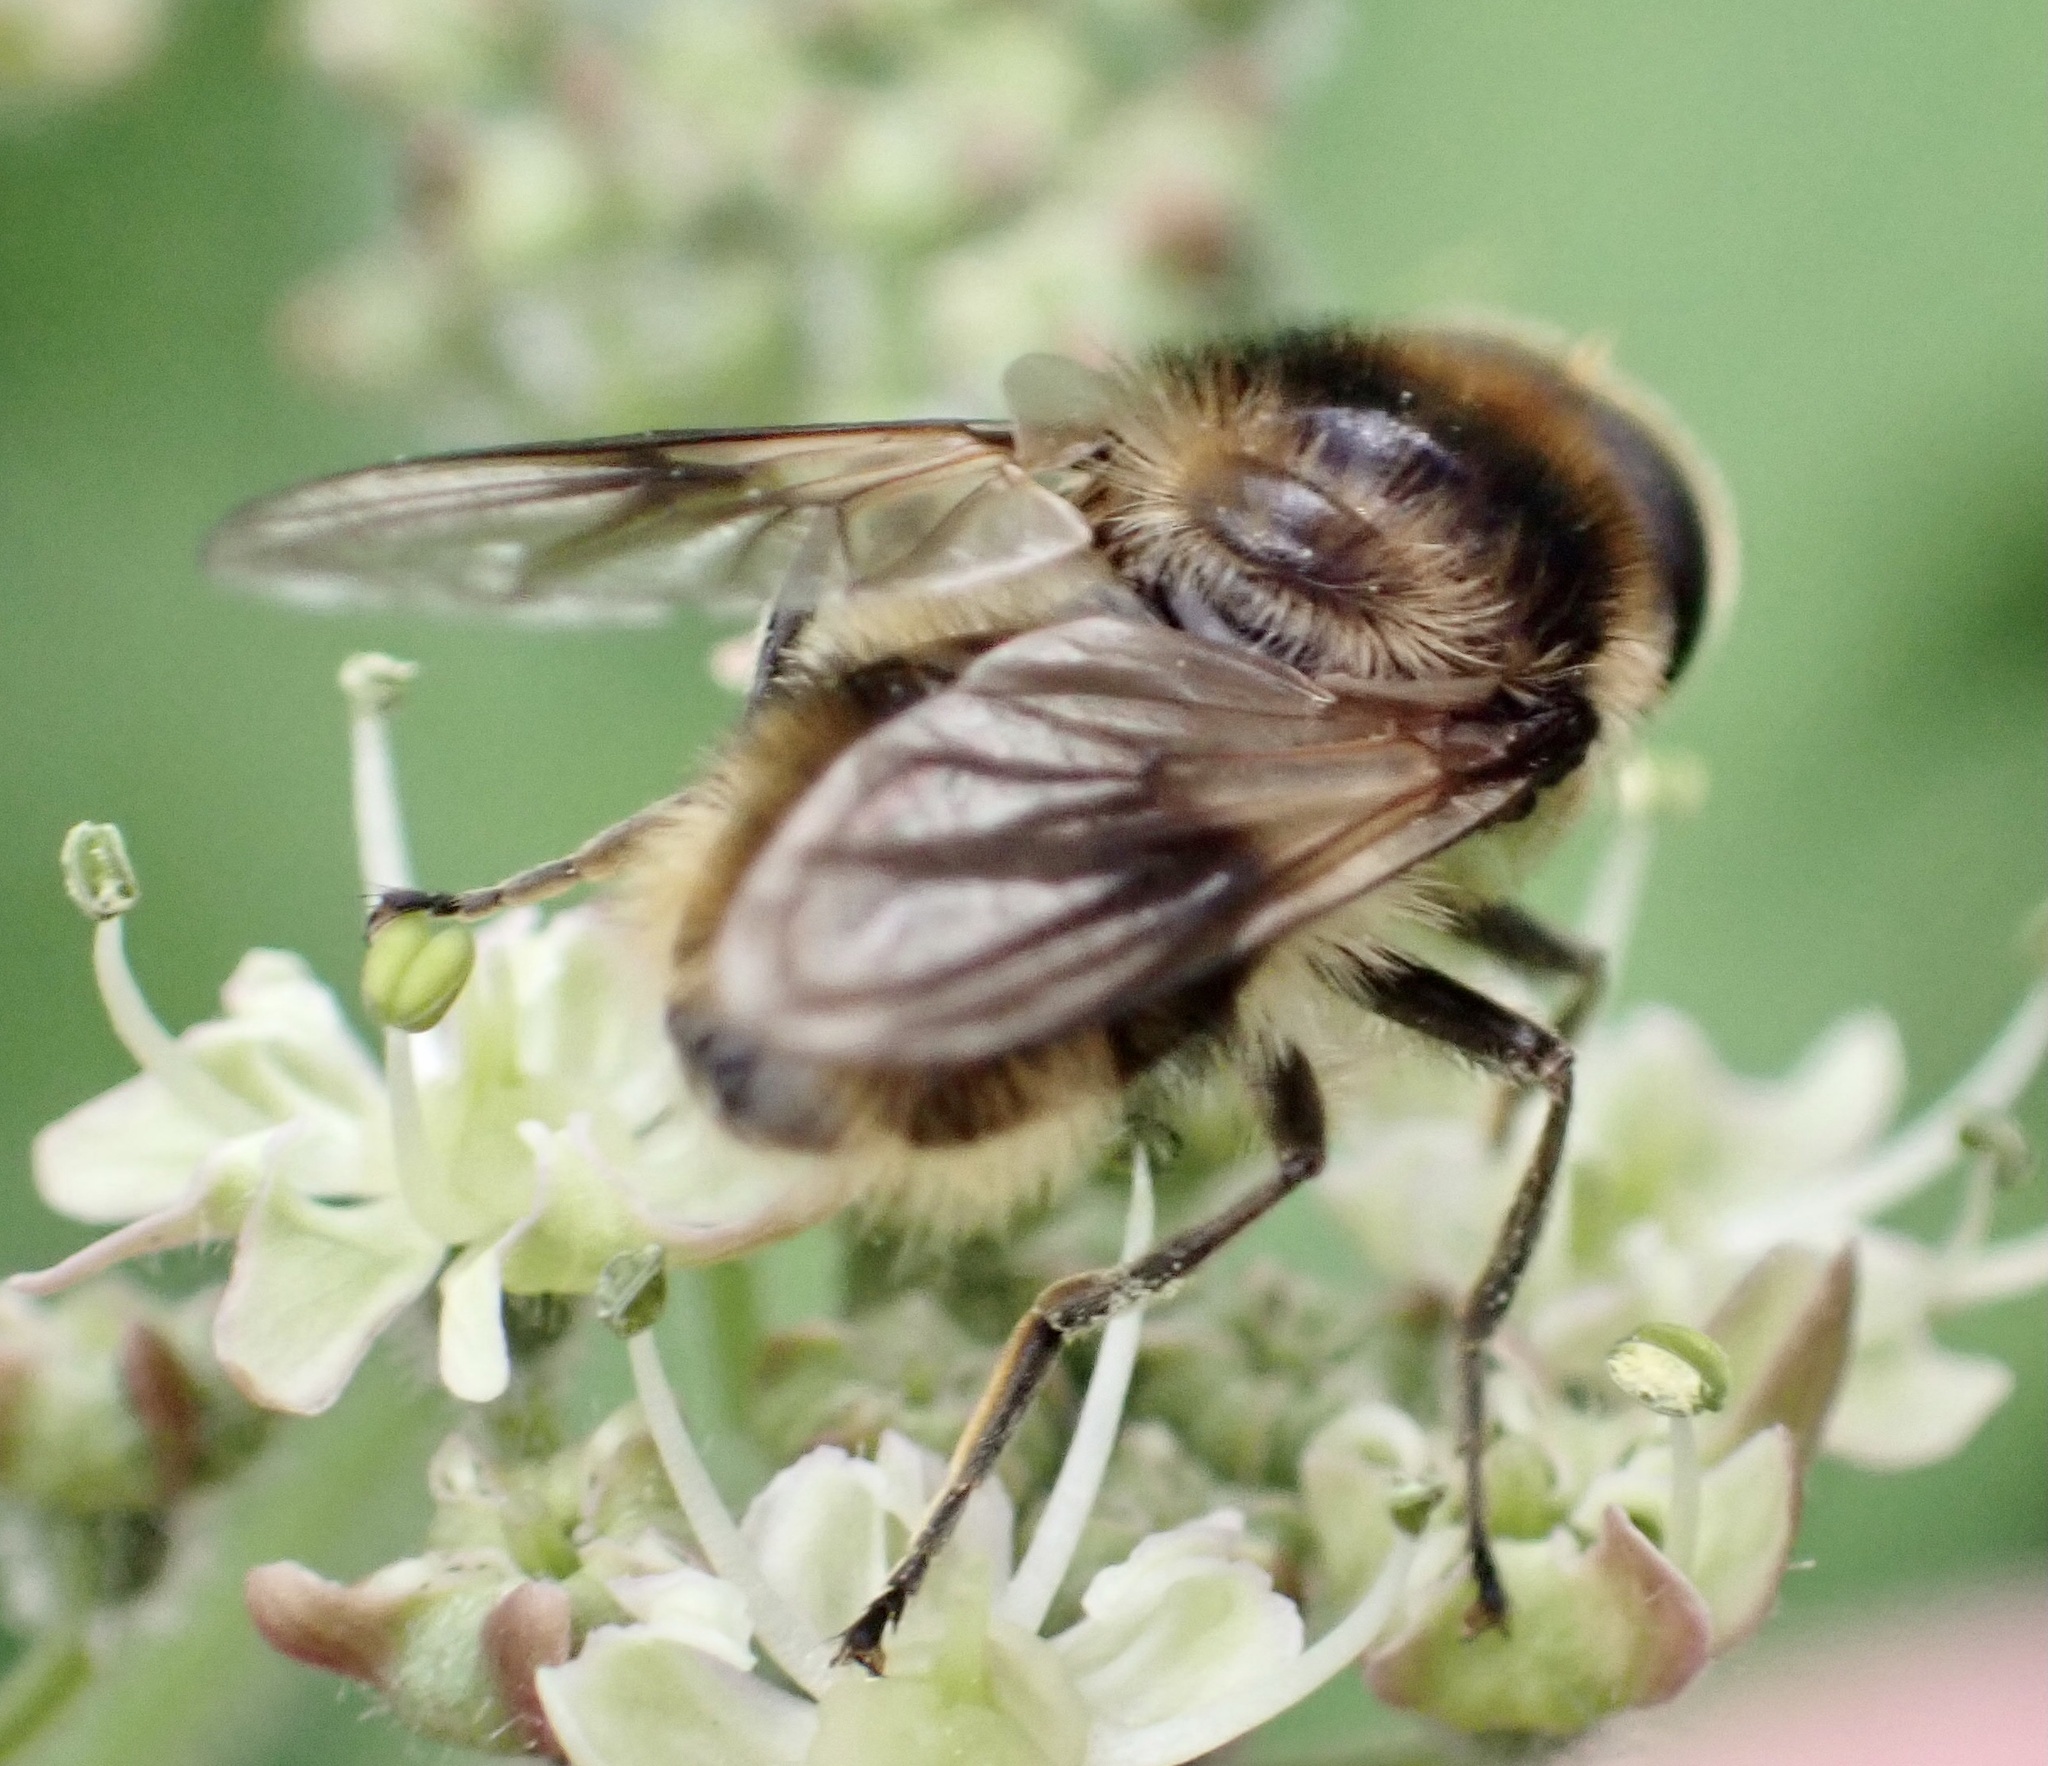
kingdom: Animalia
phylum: Arthropoda
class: Insecta
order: Diptera
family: Syrphidae
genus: Cheilosia
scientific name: Cheilosia illustrata
